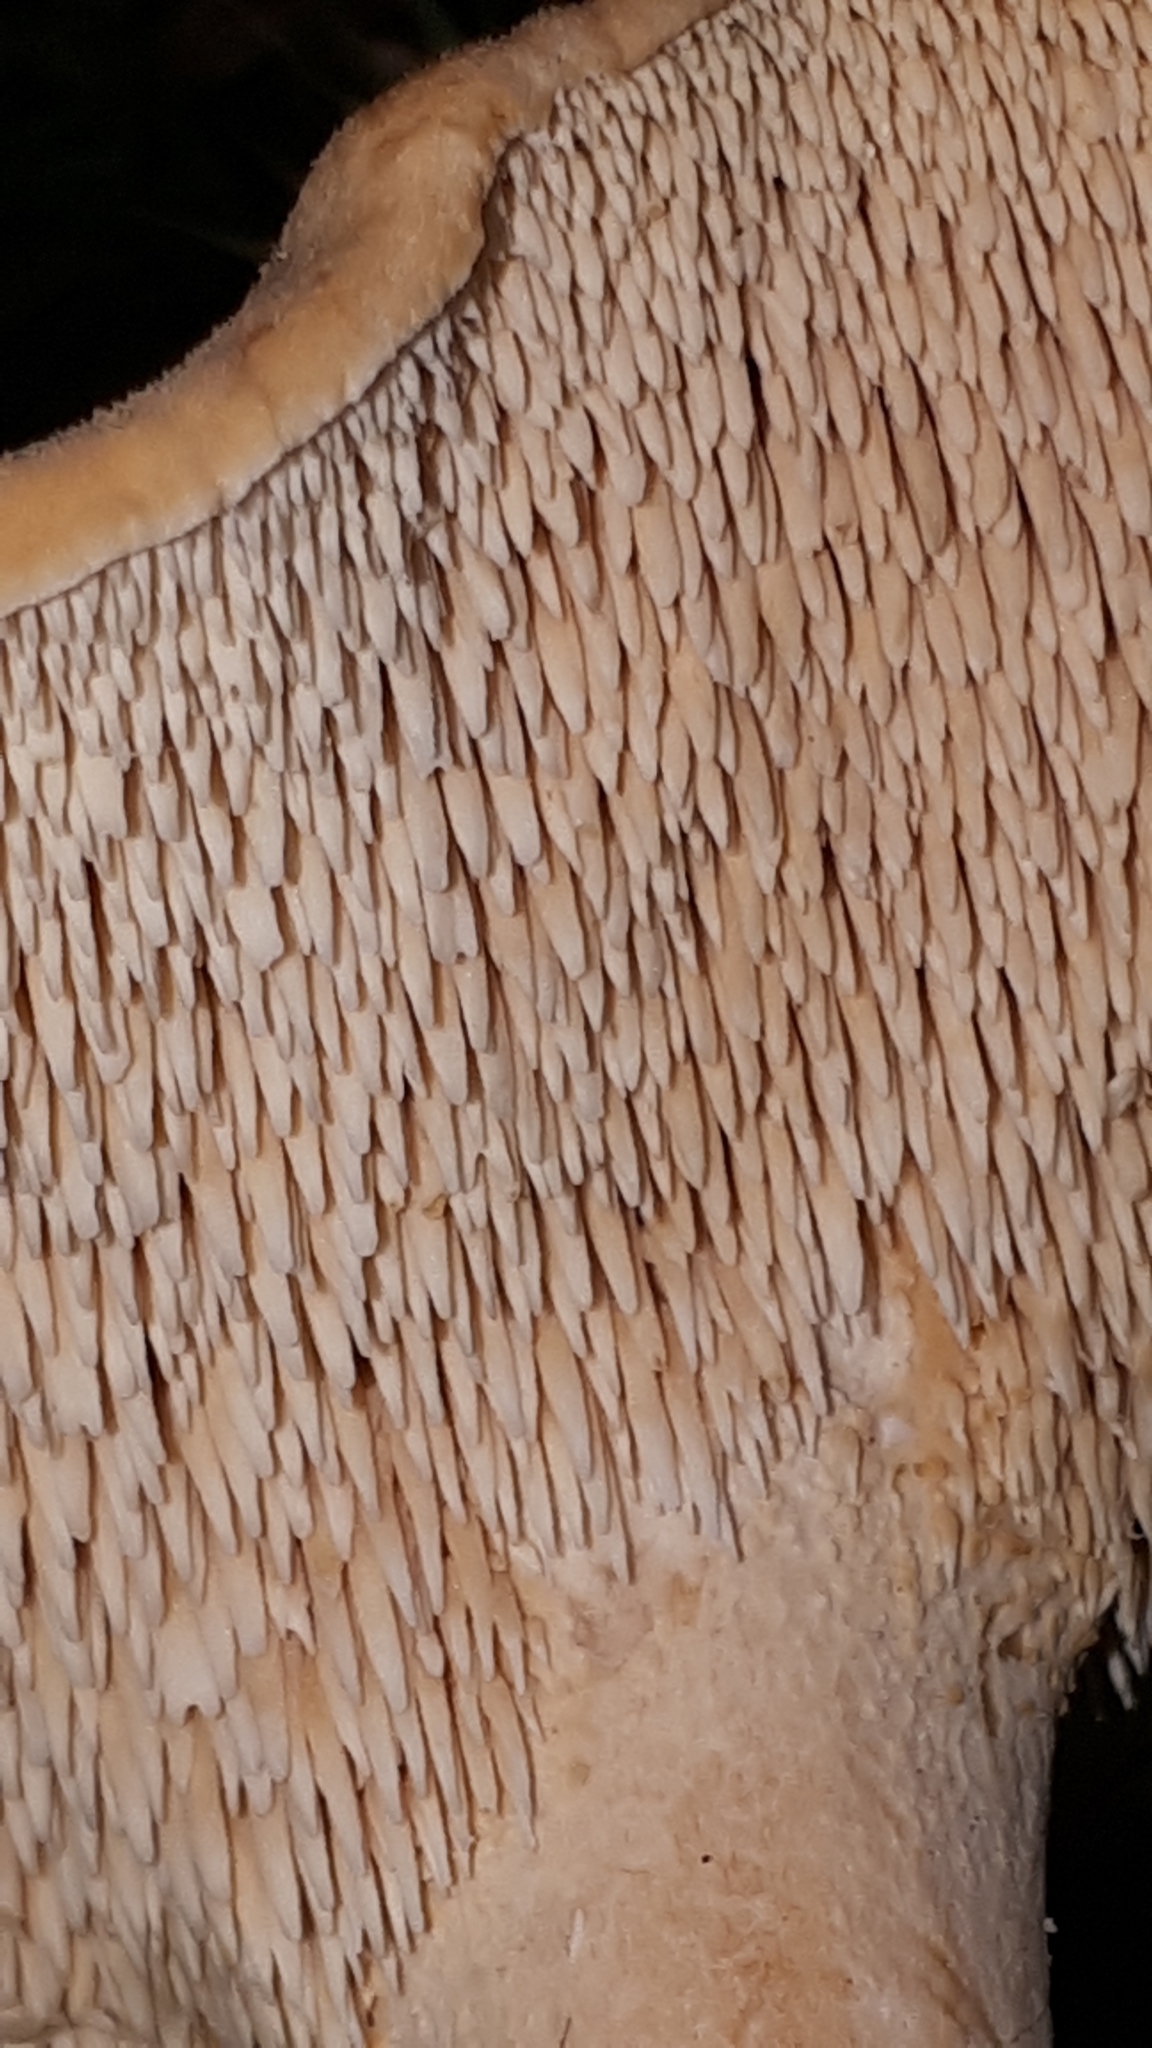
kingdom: Fungi
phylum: Basidiomycota
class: Agaricomycetes
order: Cantharellales
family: Hydnaceae
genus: Hydnum
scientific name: Hydnum rufescens
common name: Terracotta hedgehog
